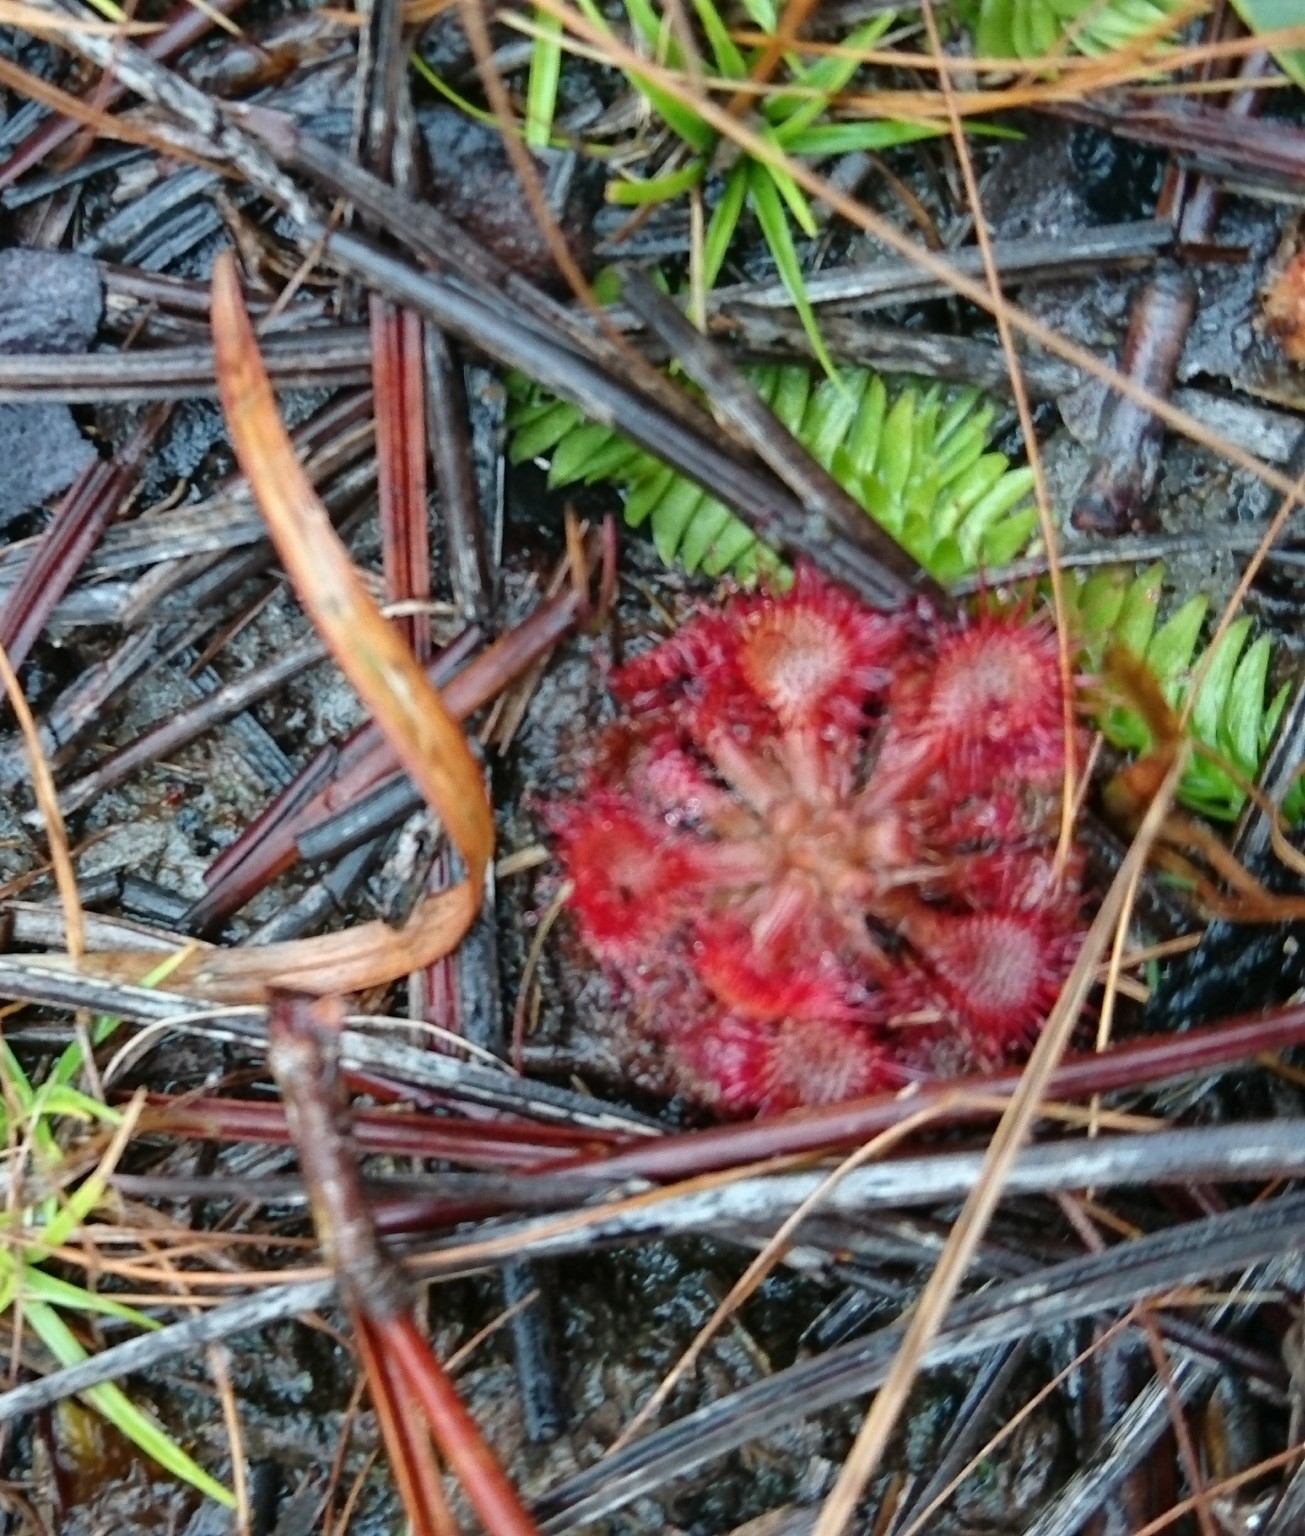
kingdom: Plantae
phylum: Tracheophyta
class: Magnoliopsida
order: Caryophyllales
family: Droseraceae
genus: Drosera
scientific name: Drosera capillaris
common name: Pink sundew
